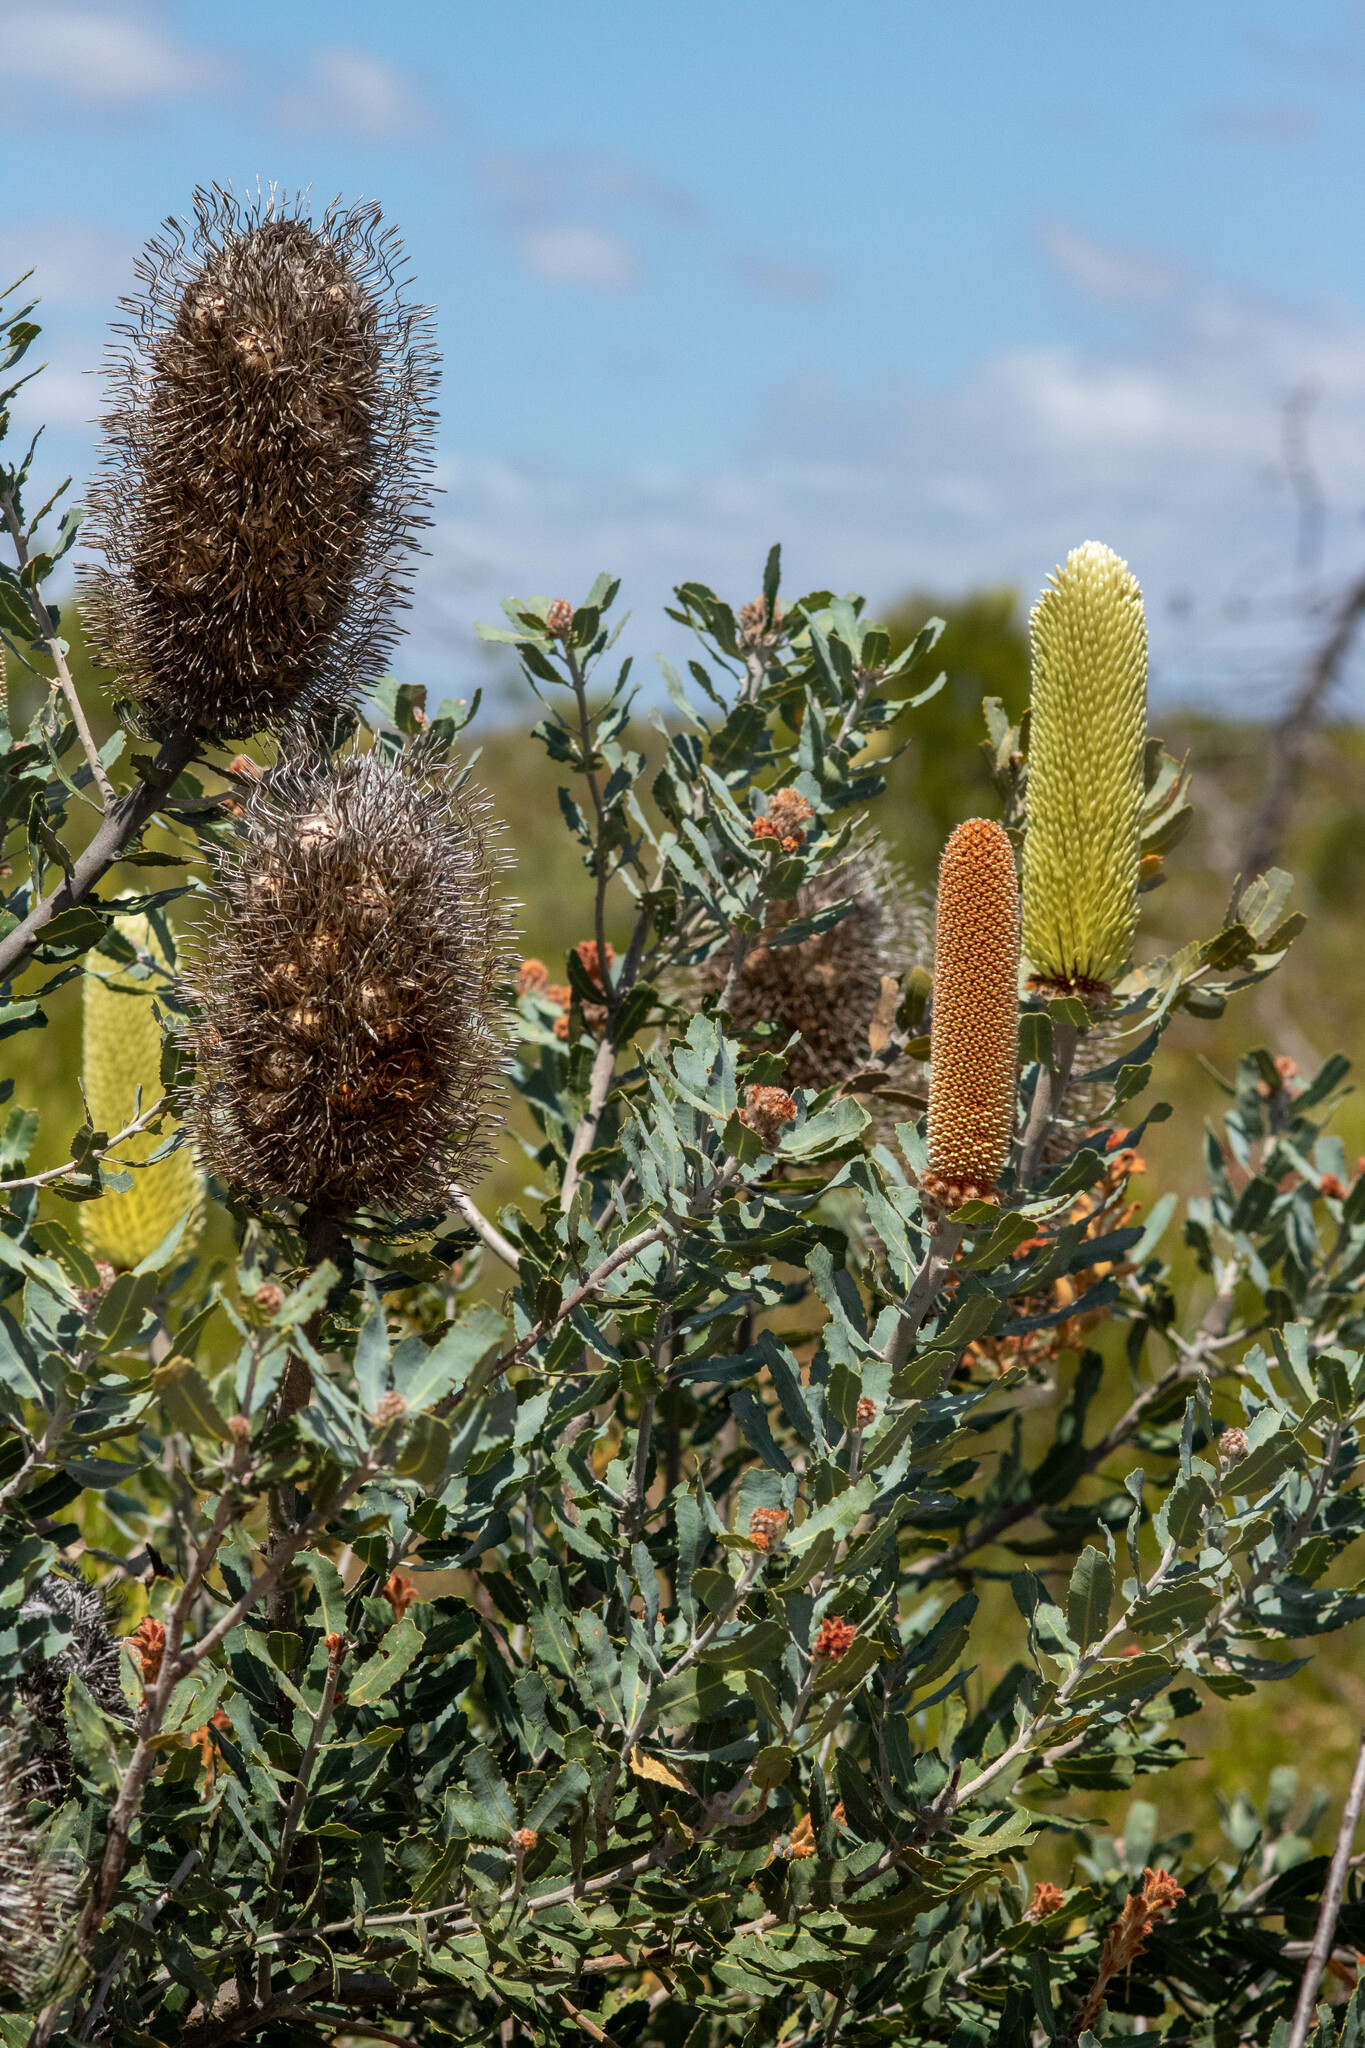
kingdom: Plantae
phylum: Tracheophyta
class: Magnoliopsida
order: Proteales
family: Proteaceae
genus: Banksia
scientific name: Banksia sceptrum
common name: Sceptre banksia
